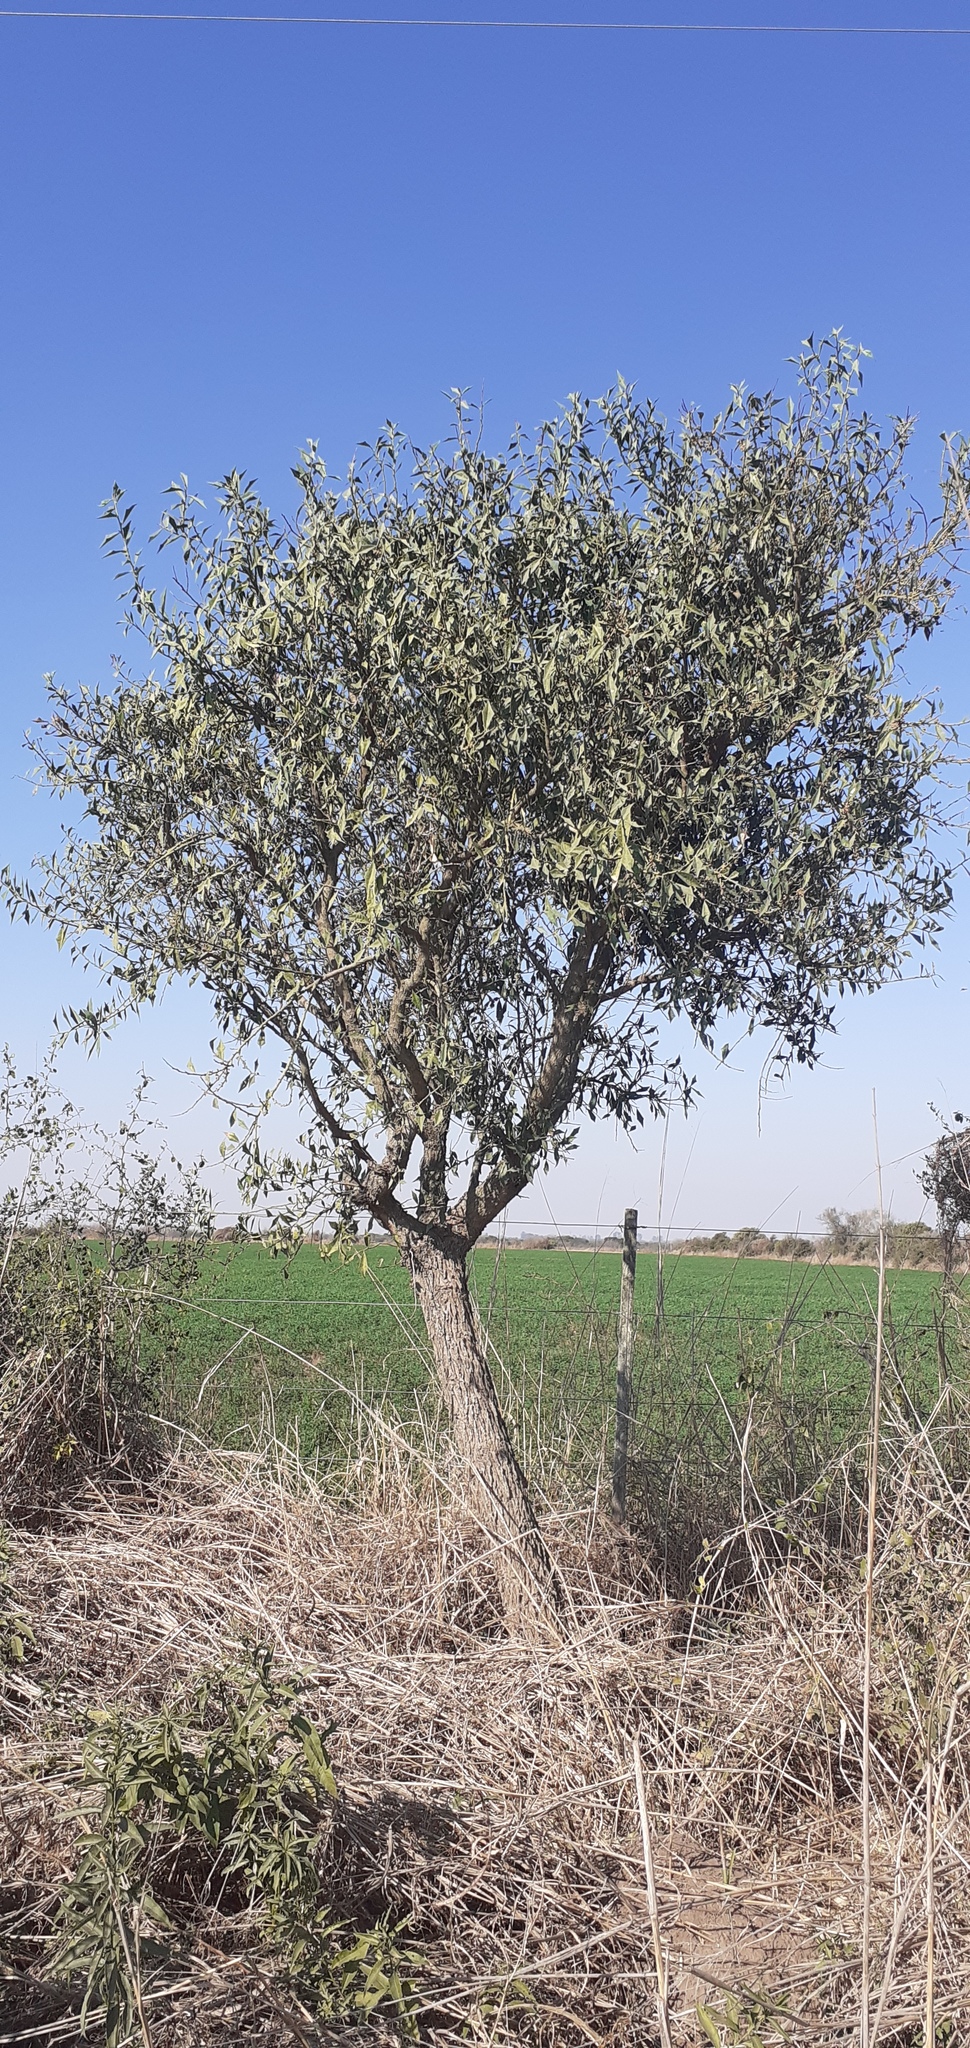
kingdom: Plantae
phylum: Tracheophyta
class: Magnoliopsida
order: Santalales
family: Cervantesiaceae
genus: Jodina
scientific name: Jodina rhombifolia
